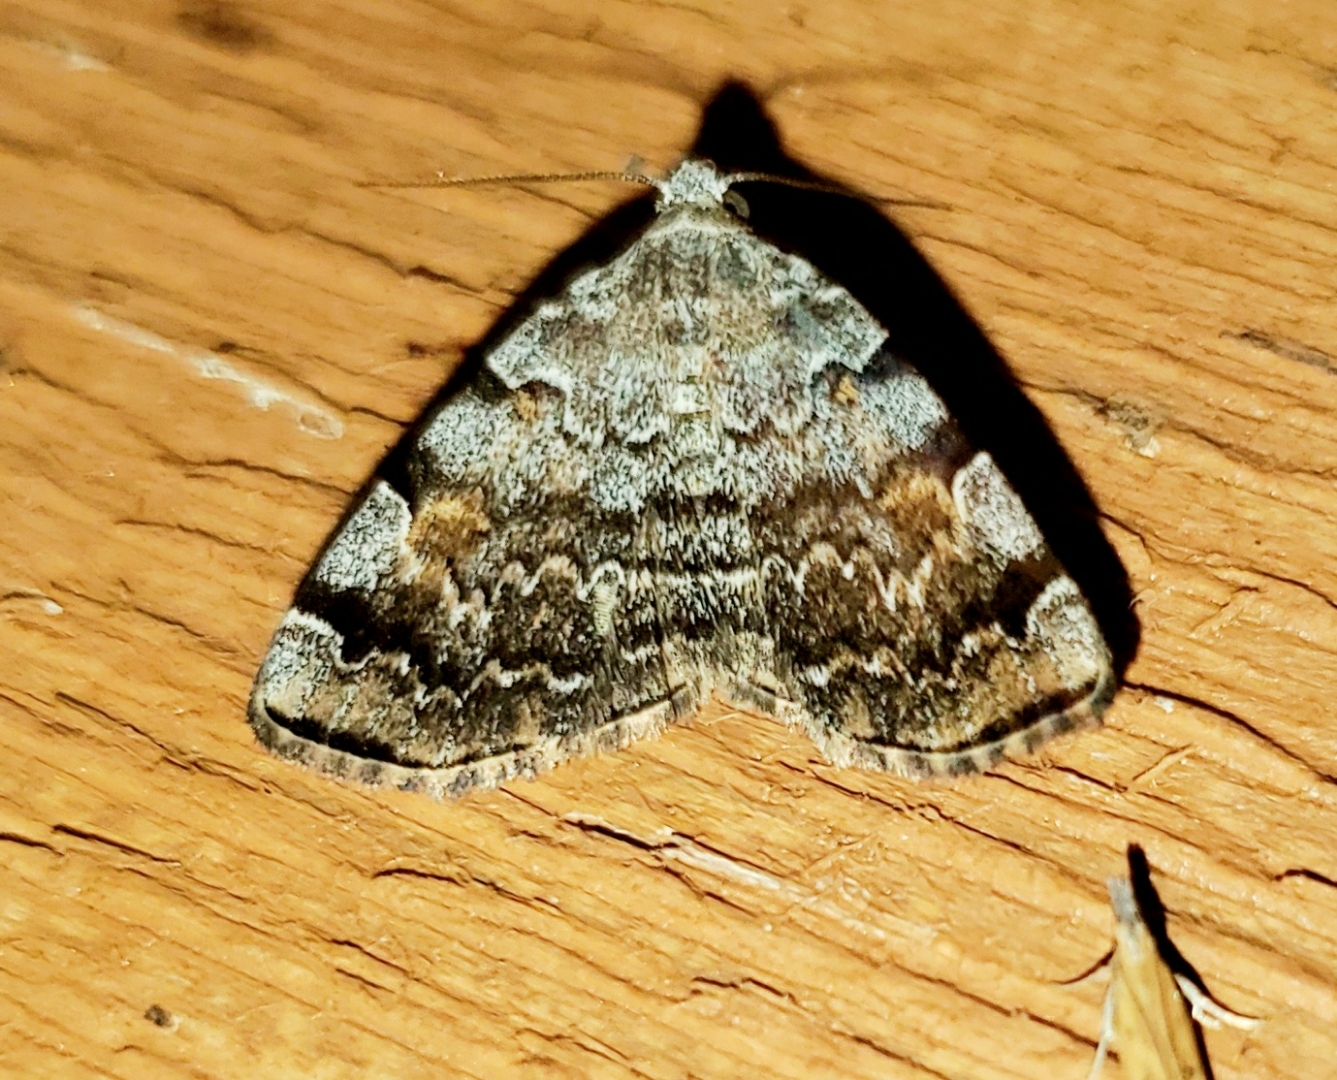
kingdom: Animalia
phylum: Arthropoda
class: Insecta
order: Lepidoptera
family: Erebidae
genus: Idia
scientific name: Idia americalis
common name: American idia moth
